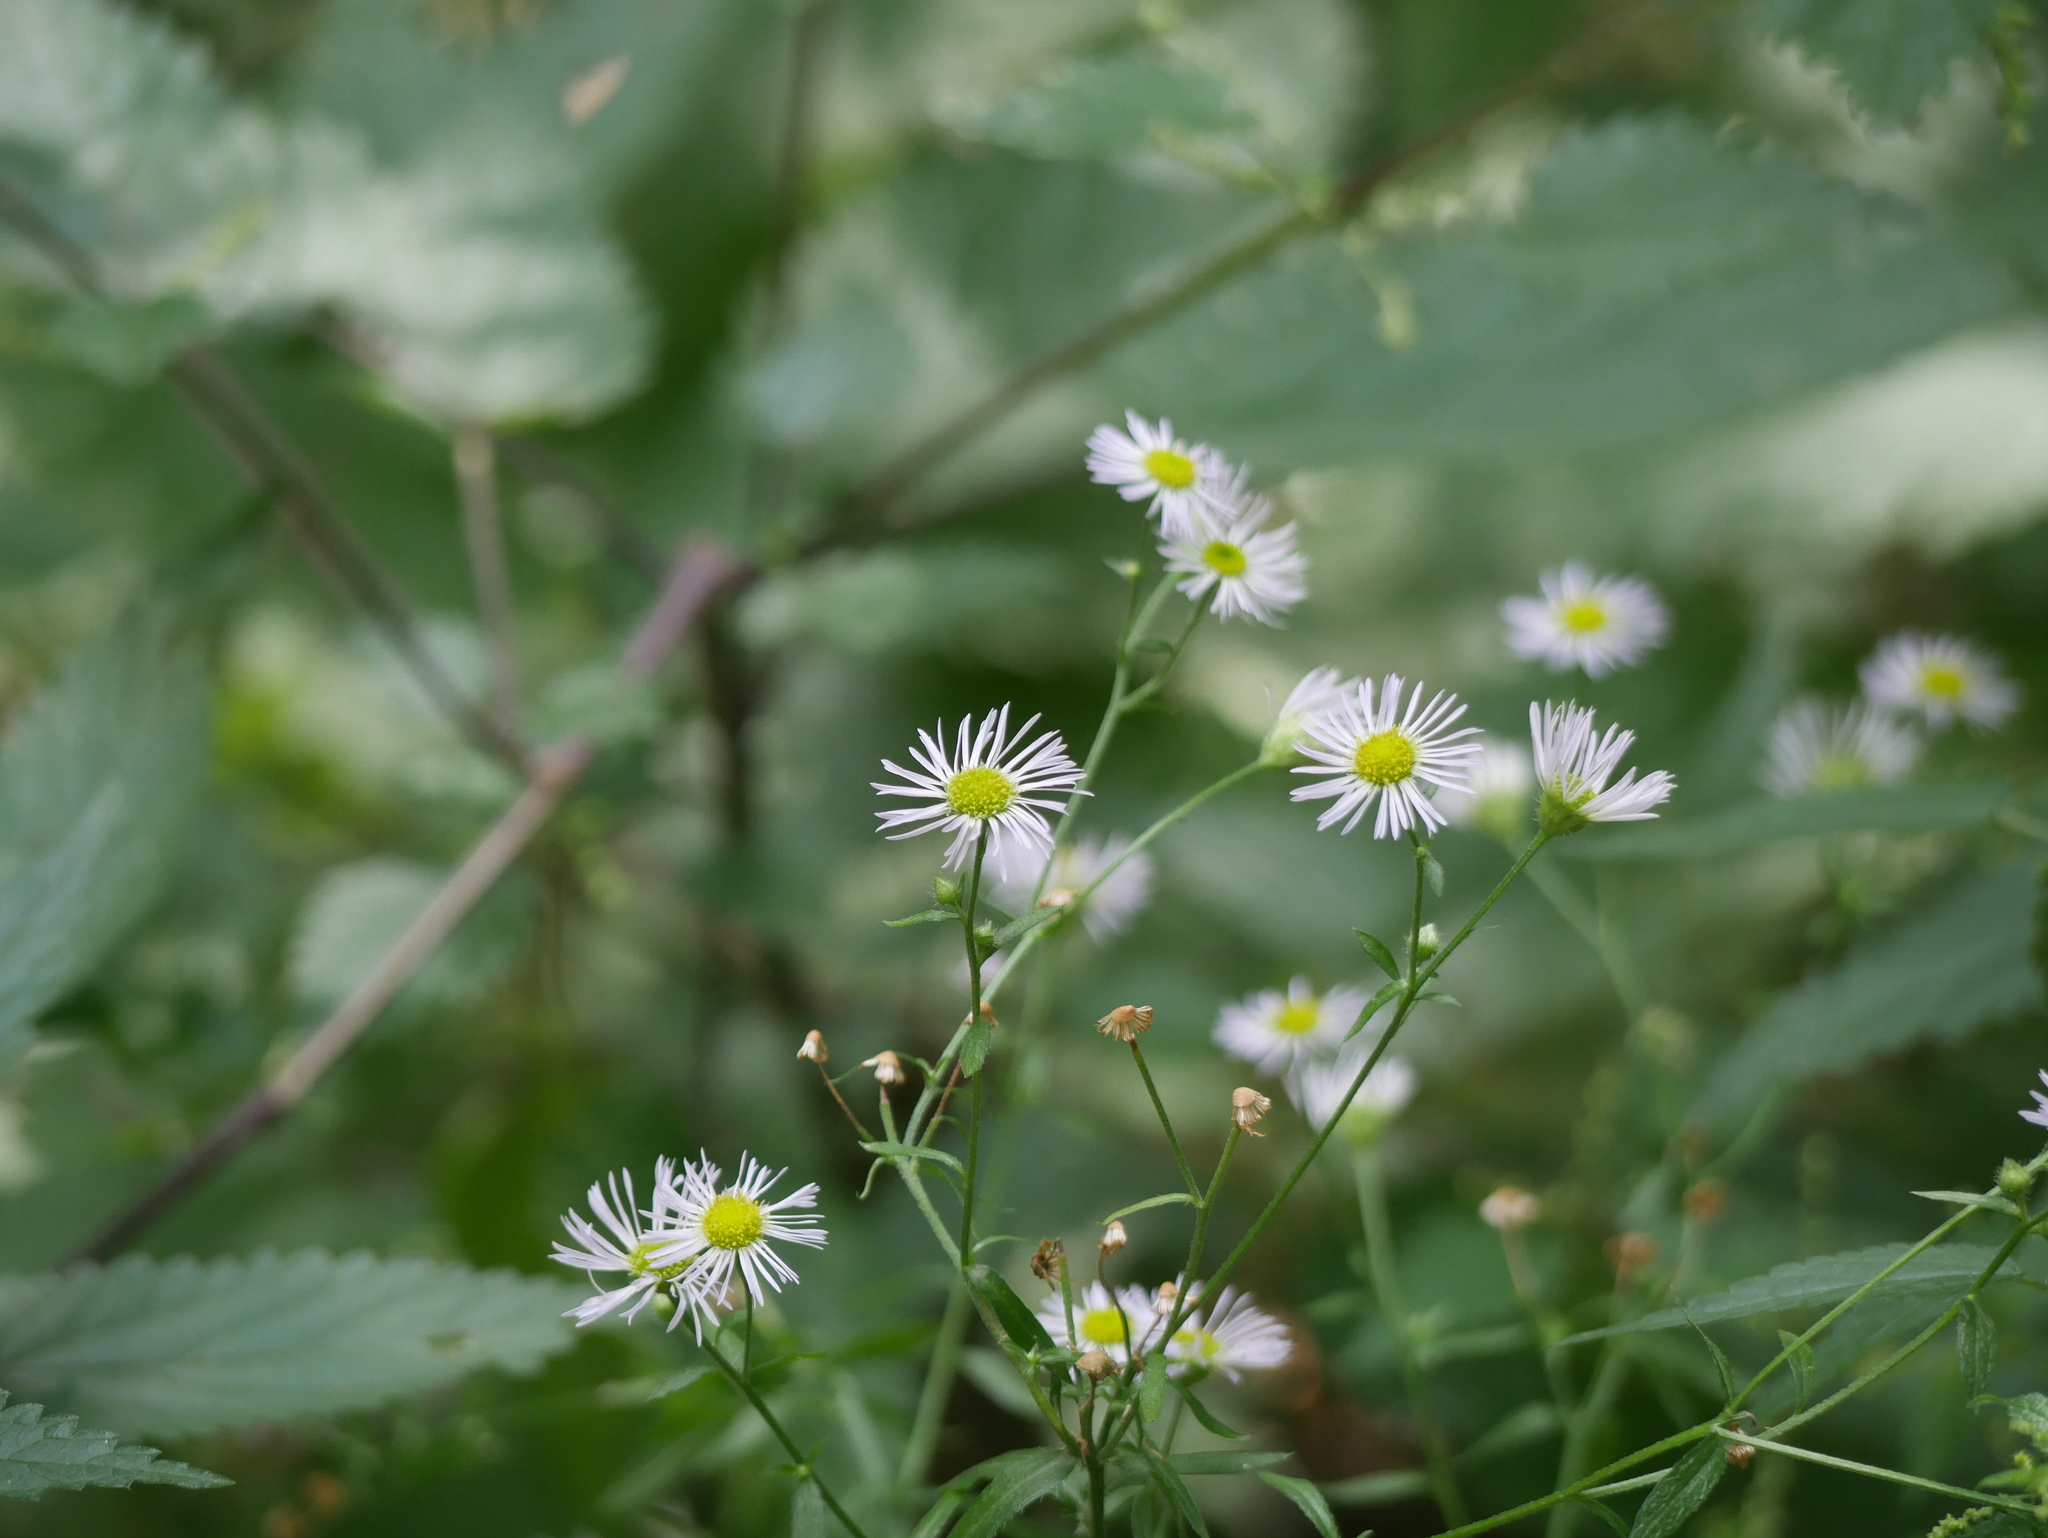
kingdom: Plantae
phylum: Tracheophyta
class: Magnoliopsida
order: Asterales
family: Asteraceae
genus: Erigeron
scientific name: Erigeron annuus
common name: Tall fleabane
